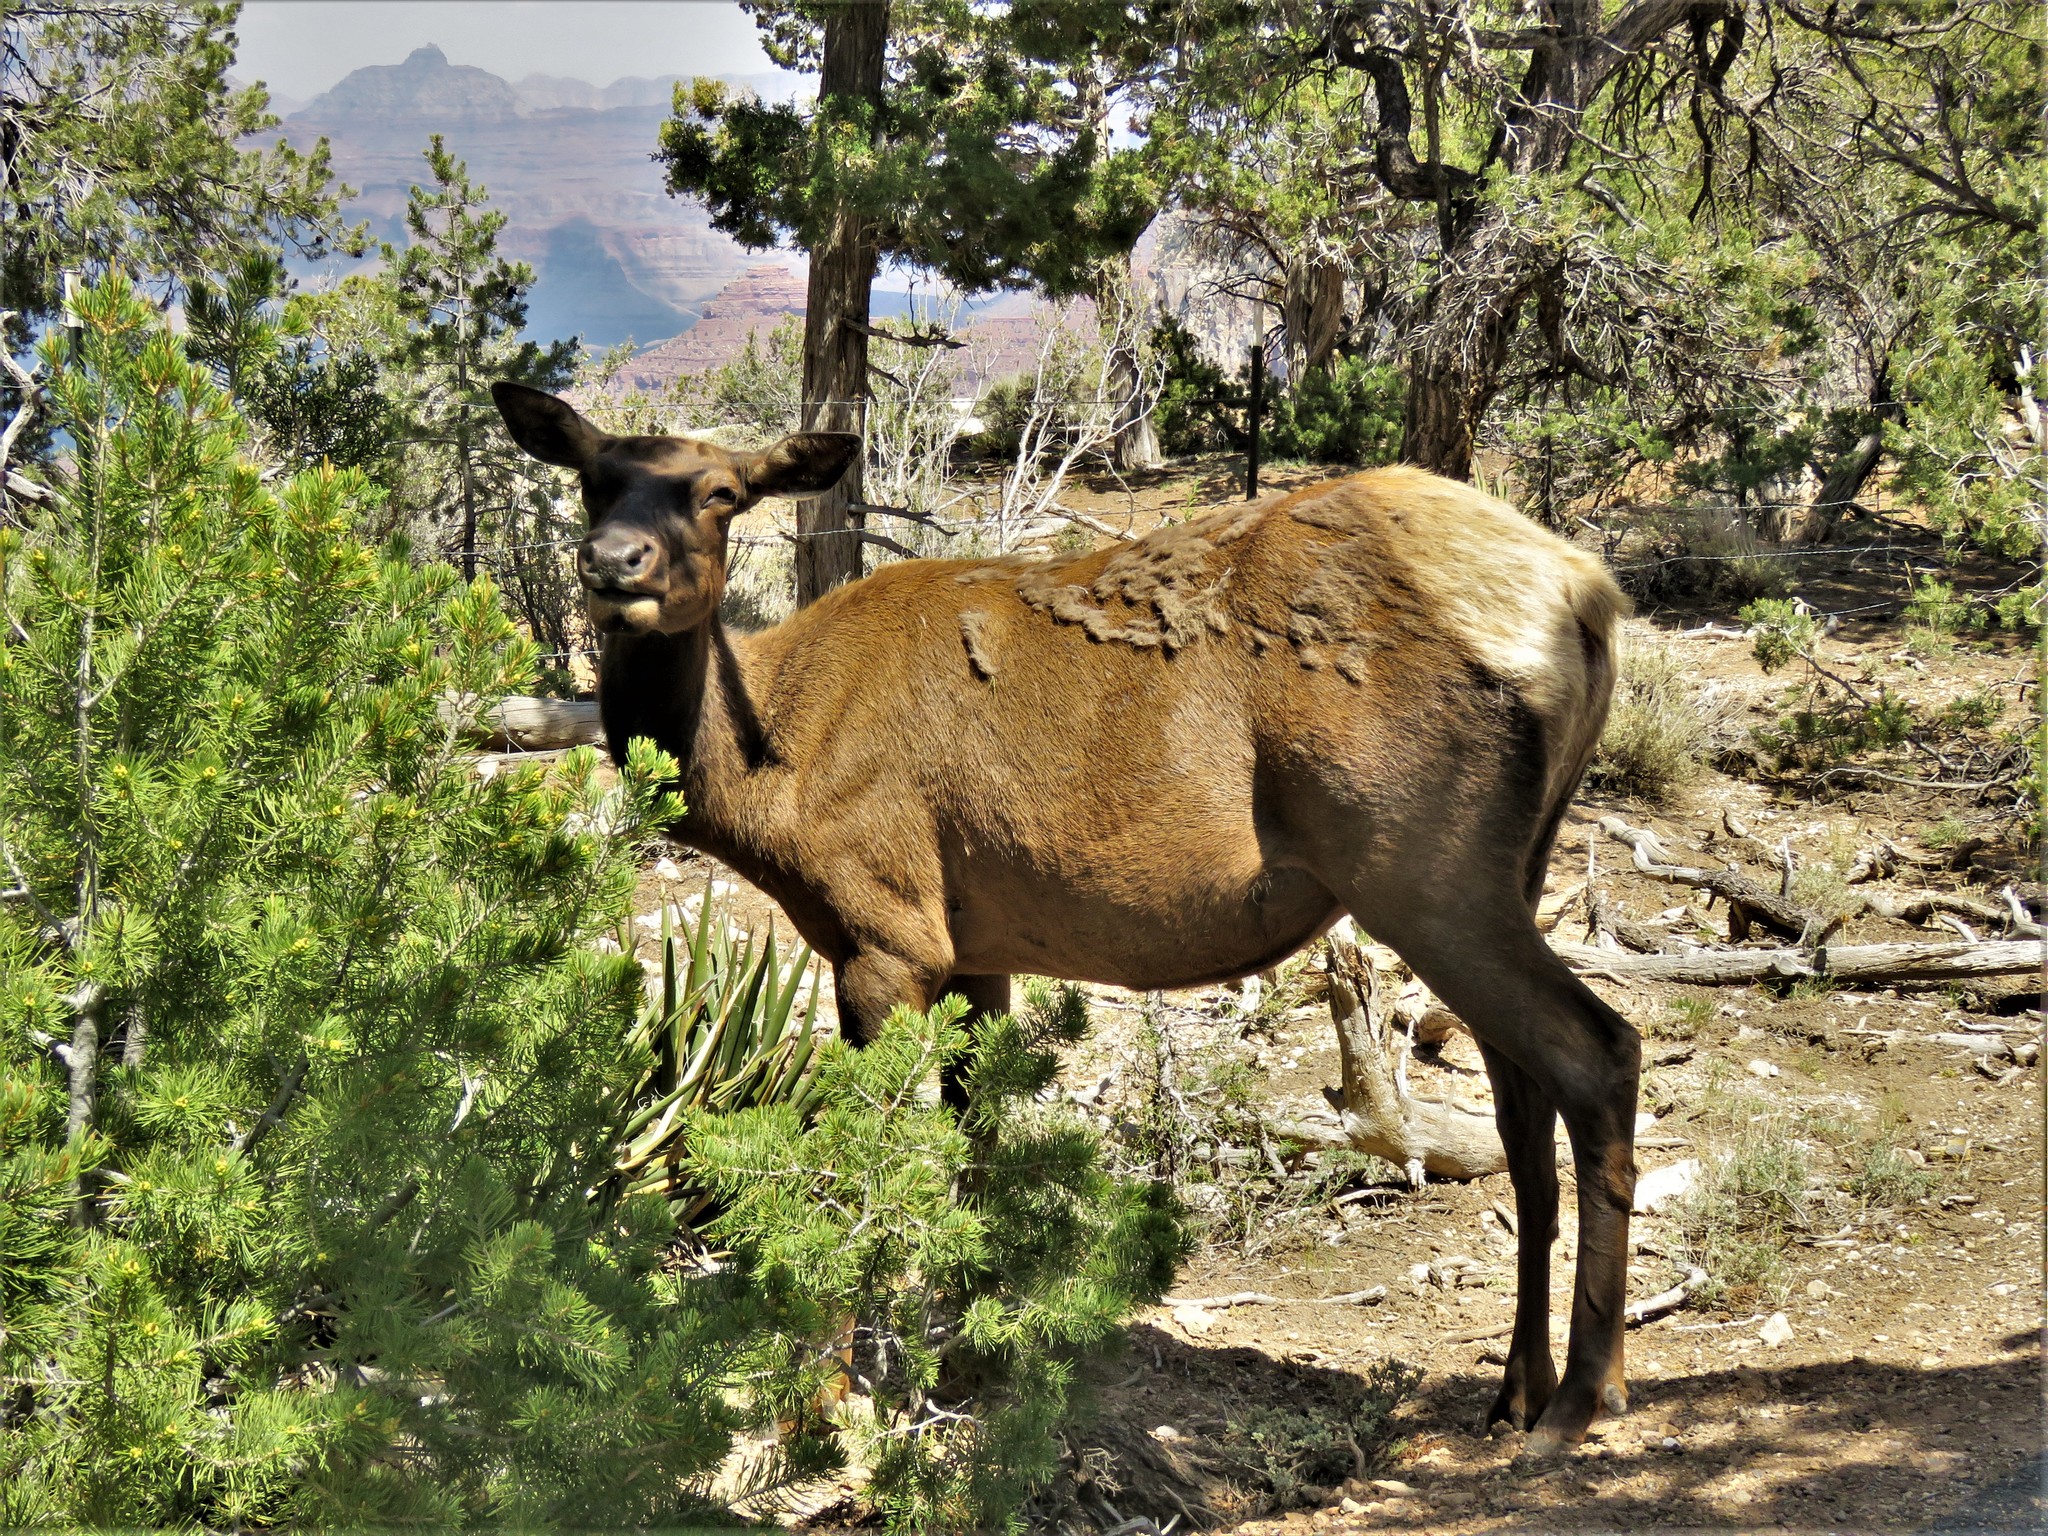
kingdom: Animalia
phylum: Chordata
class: Mammalia
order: Artiodactyla
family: Cervidae
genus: Cervus
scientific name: Cervus elaphus
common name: Red deer
